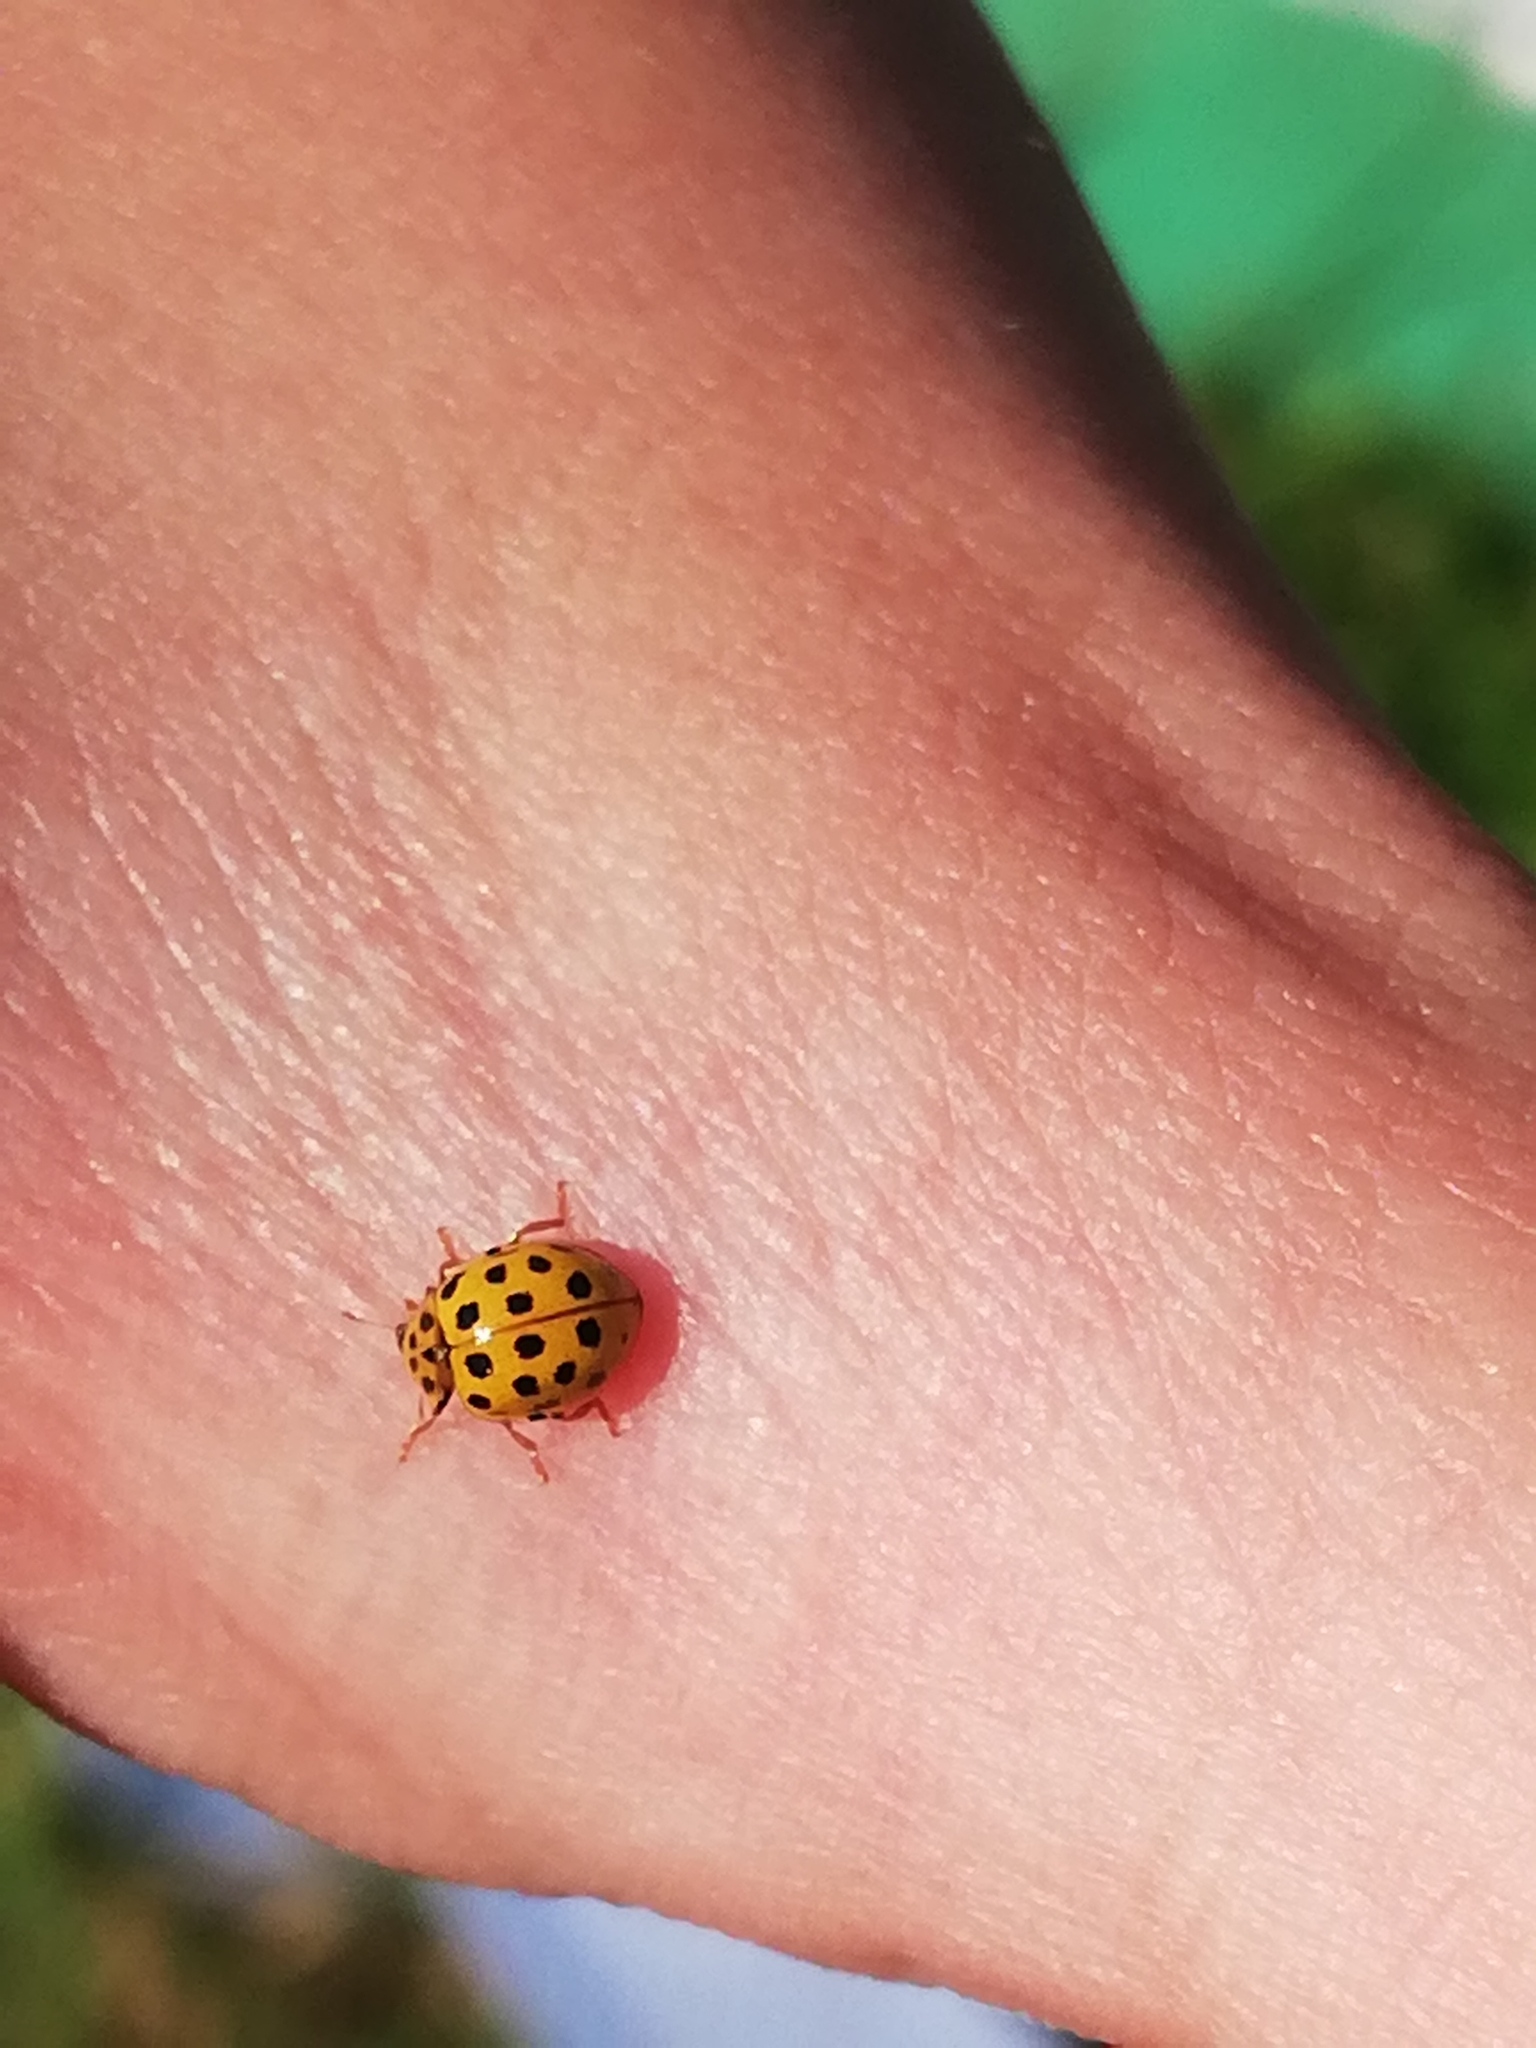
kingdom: Animalia
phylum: Arthropoda
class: Insecta
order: Coleoptera
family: Coccinellidae
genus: Psyllobora
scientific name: Psyllobora vigintiduopunctata
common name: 22-spot ladybird
